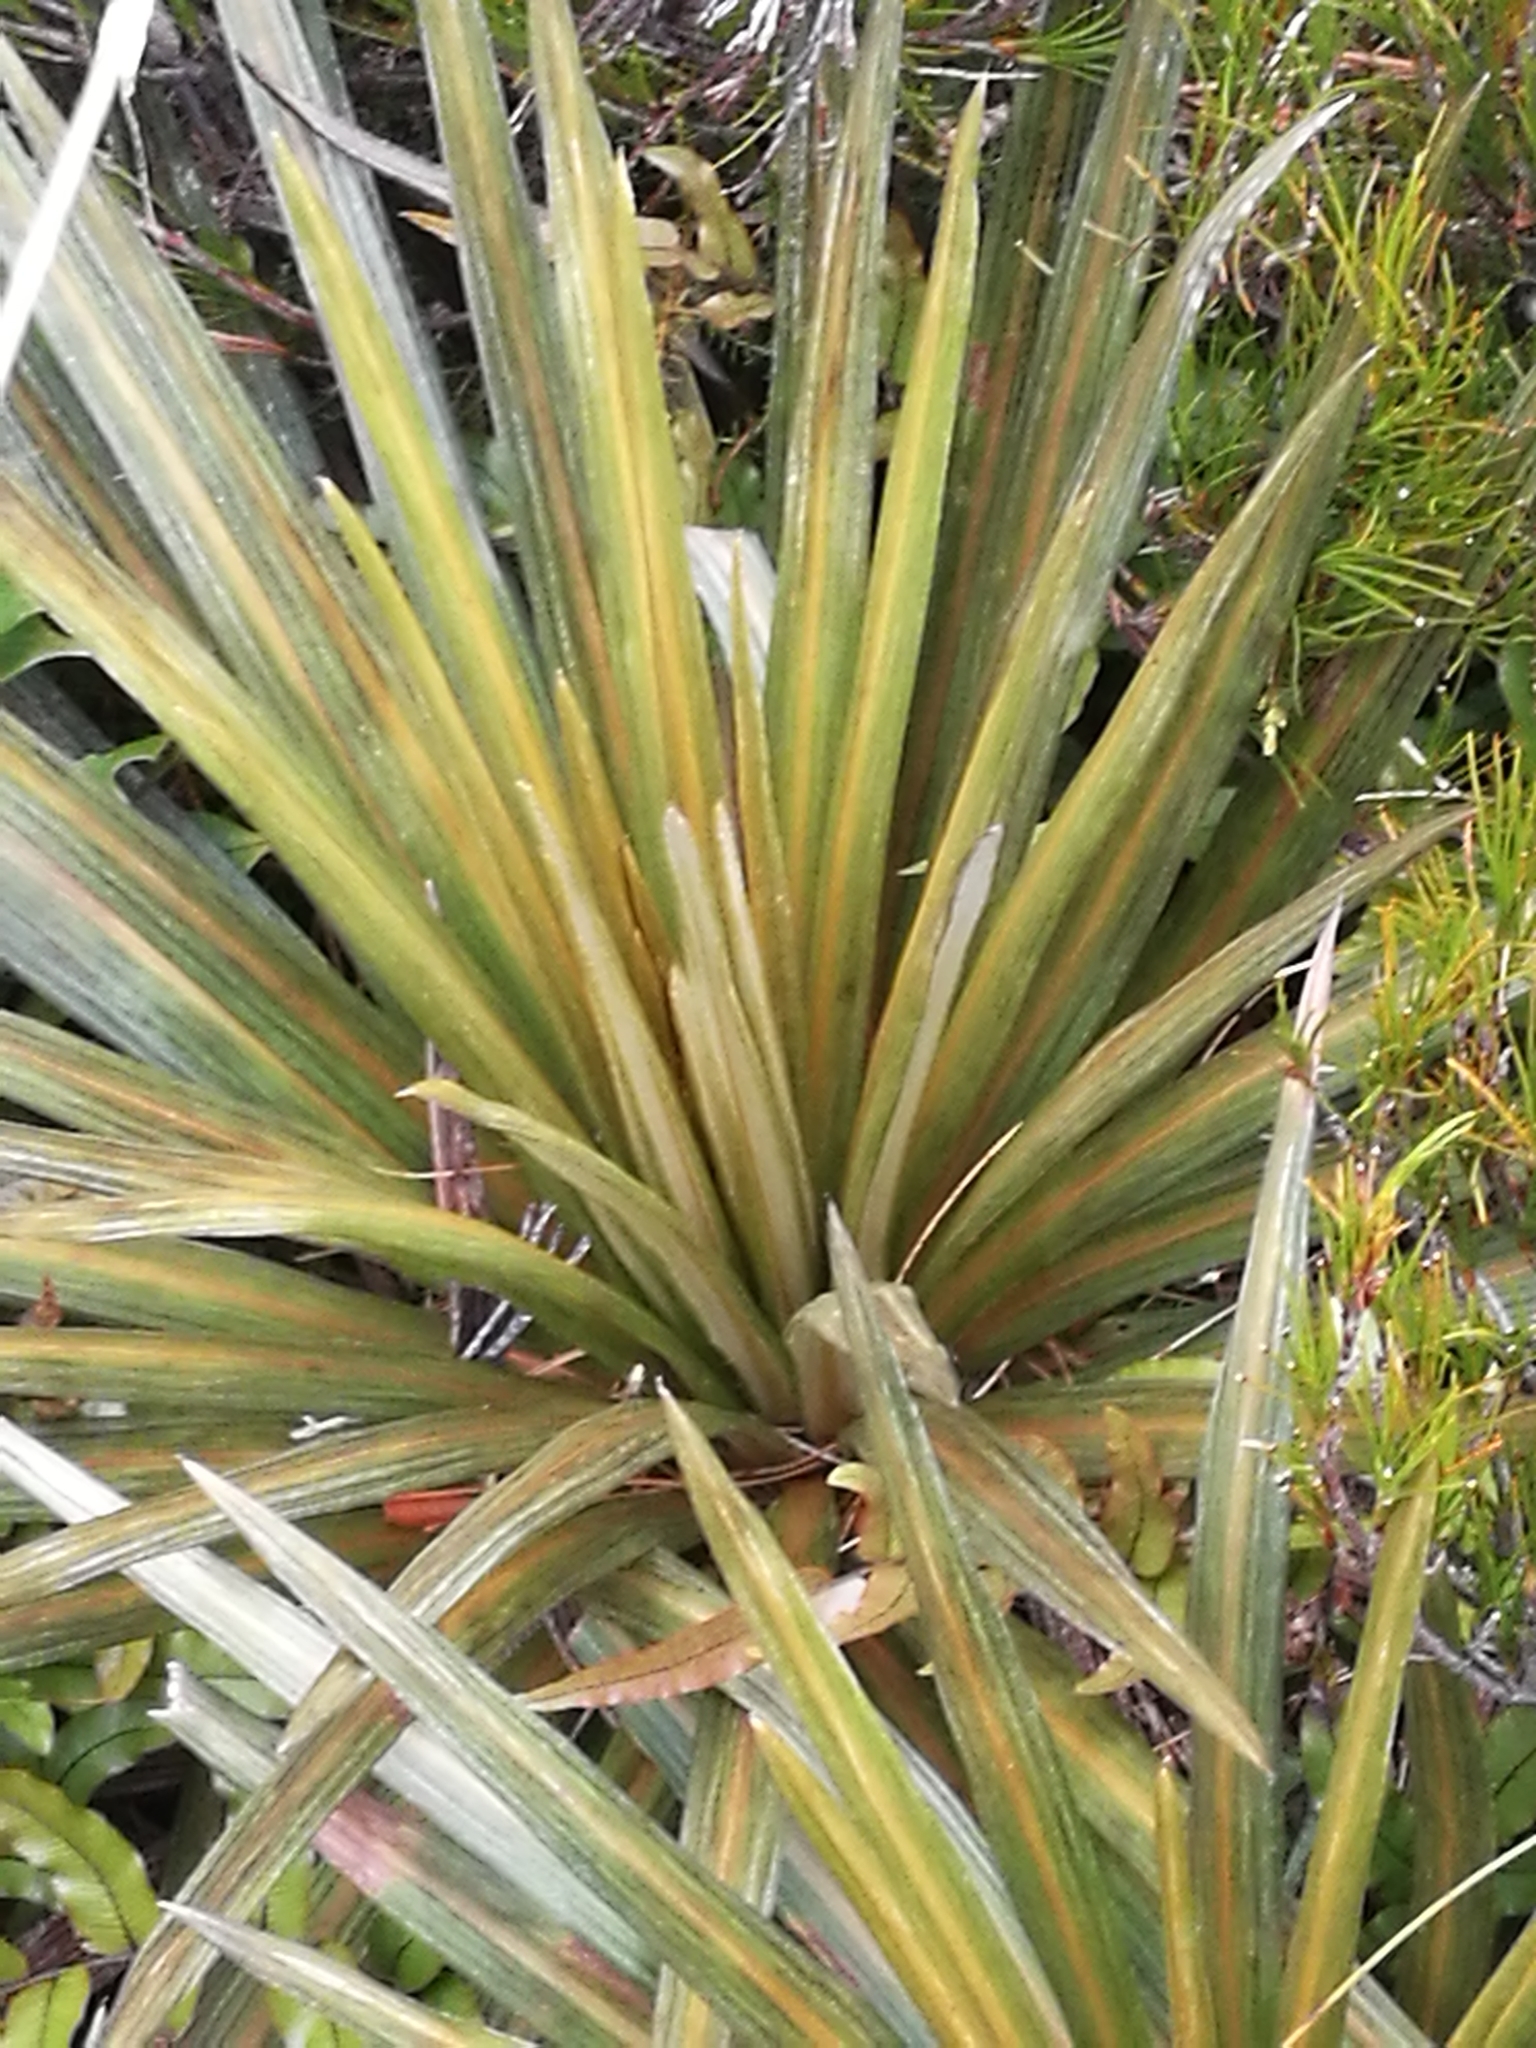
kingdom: Plantae
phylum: Tracheophyta
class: Magnoliopsida
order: Asterales
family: Asteraceae
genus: Celmisia
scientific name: Celmisia armstrongii
